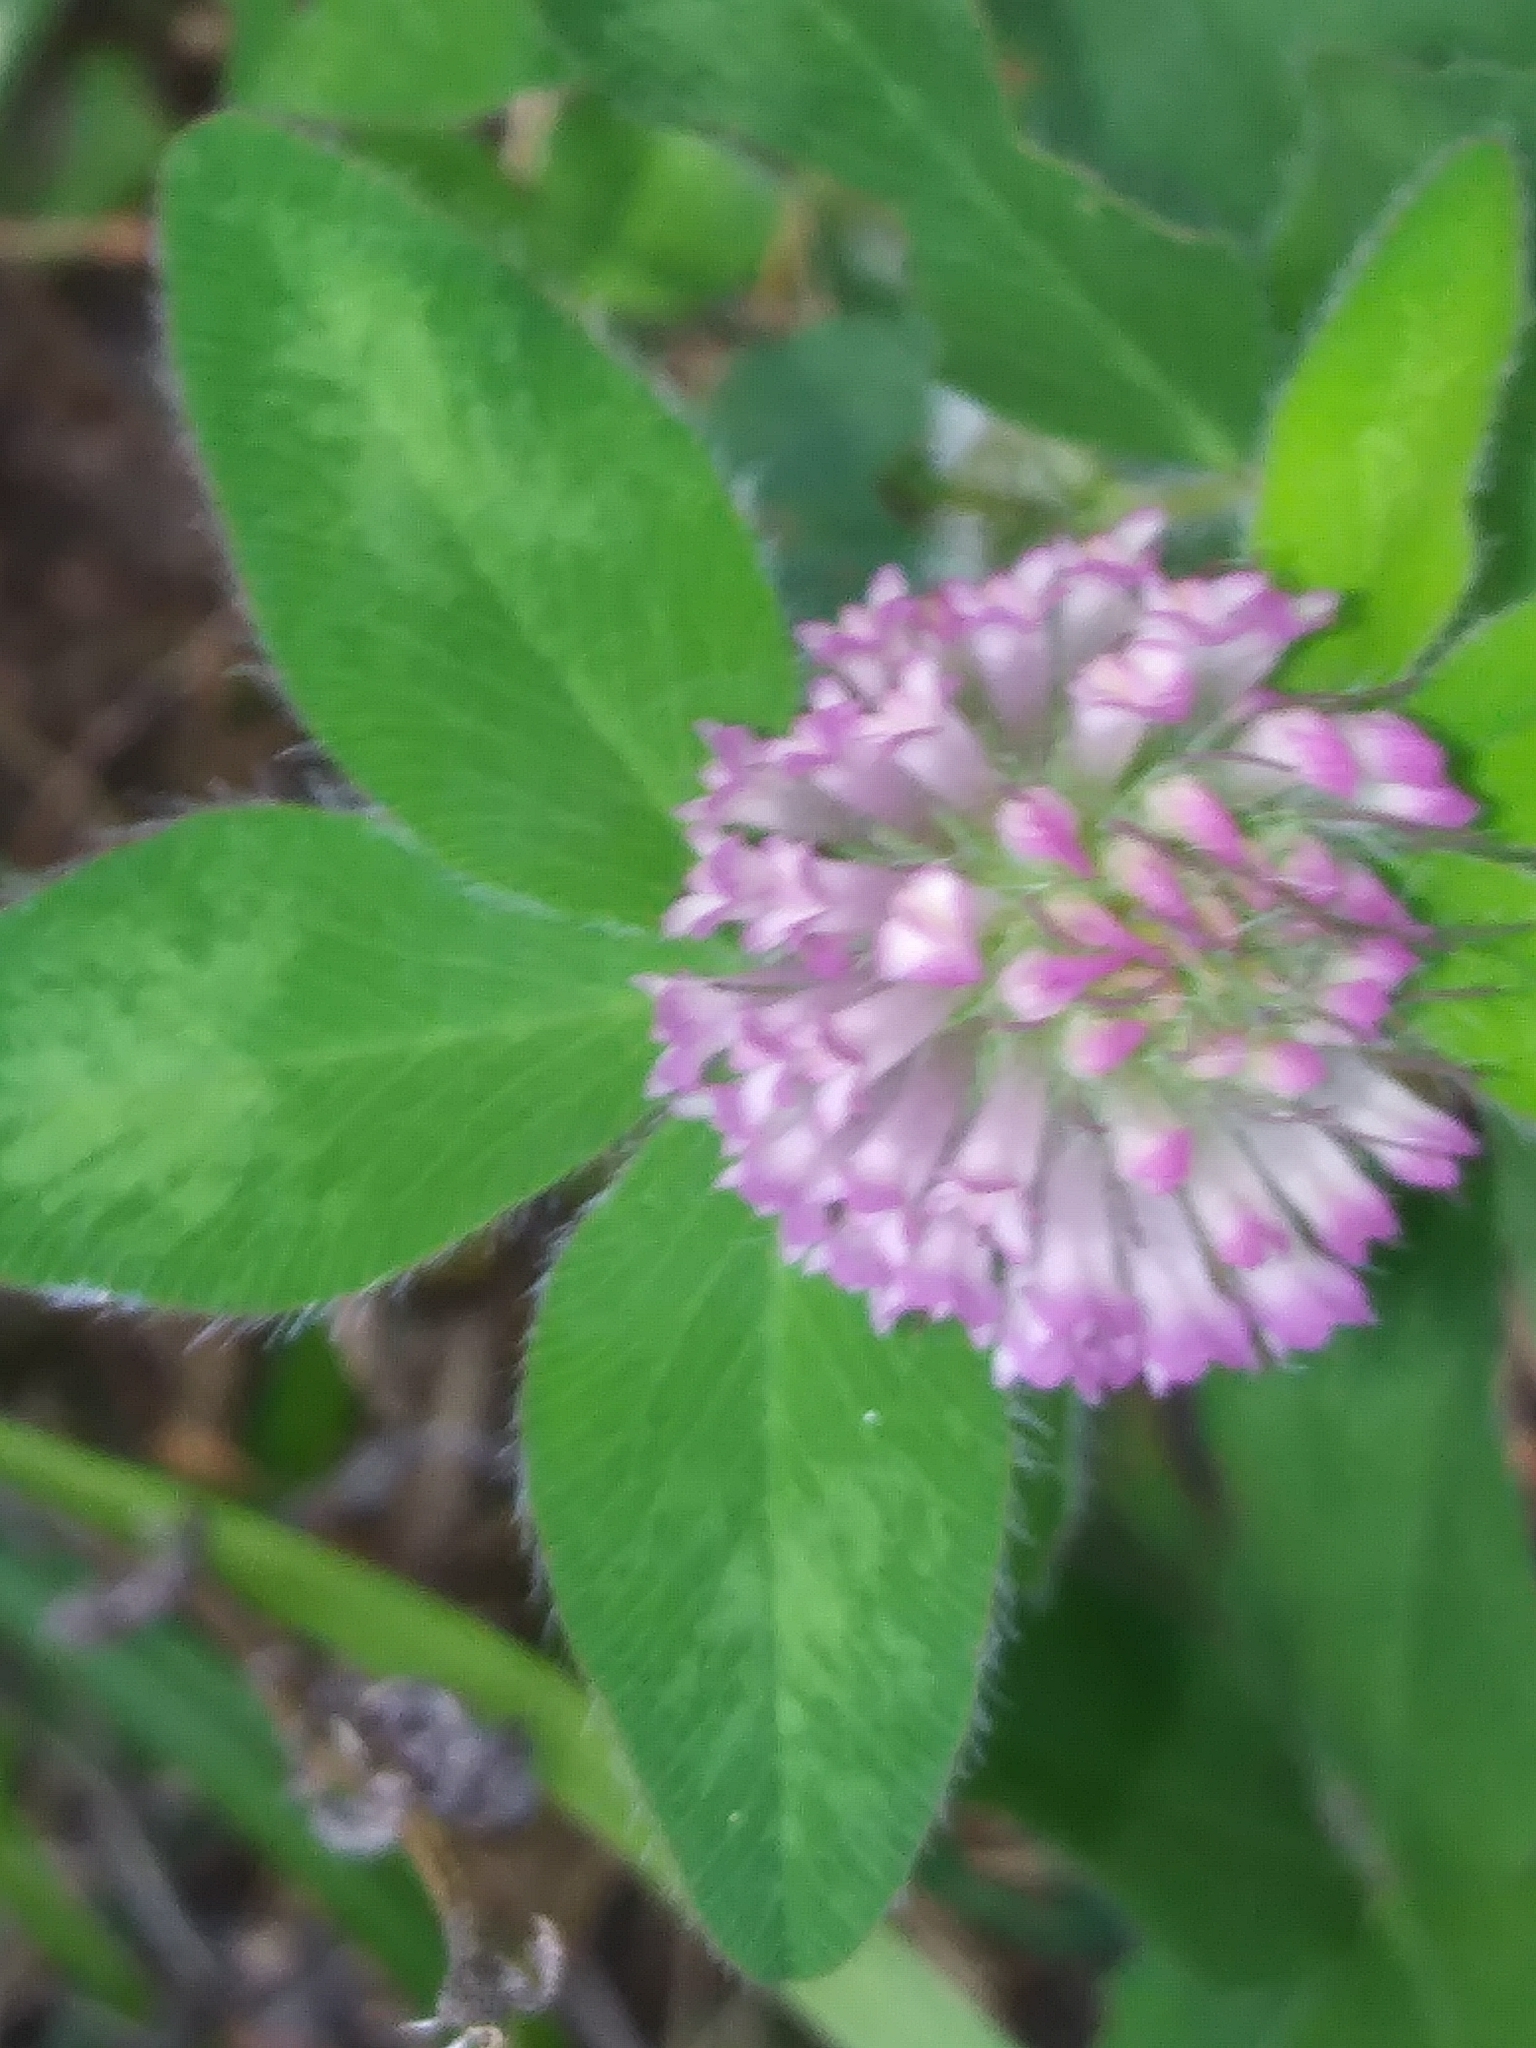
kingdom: Plantae
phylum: Tracheophyta
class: Magnoliopsida
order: Fabales
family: Fabaceae
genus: Trifolium
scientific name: Trifolium pratense
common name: Red clover
